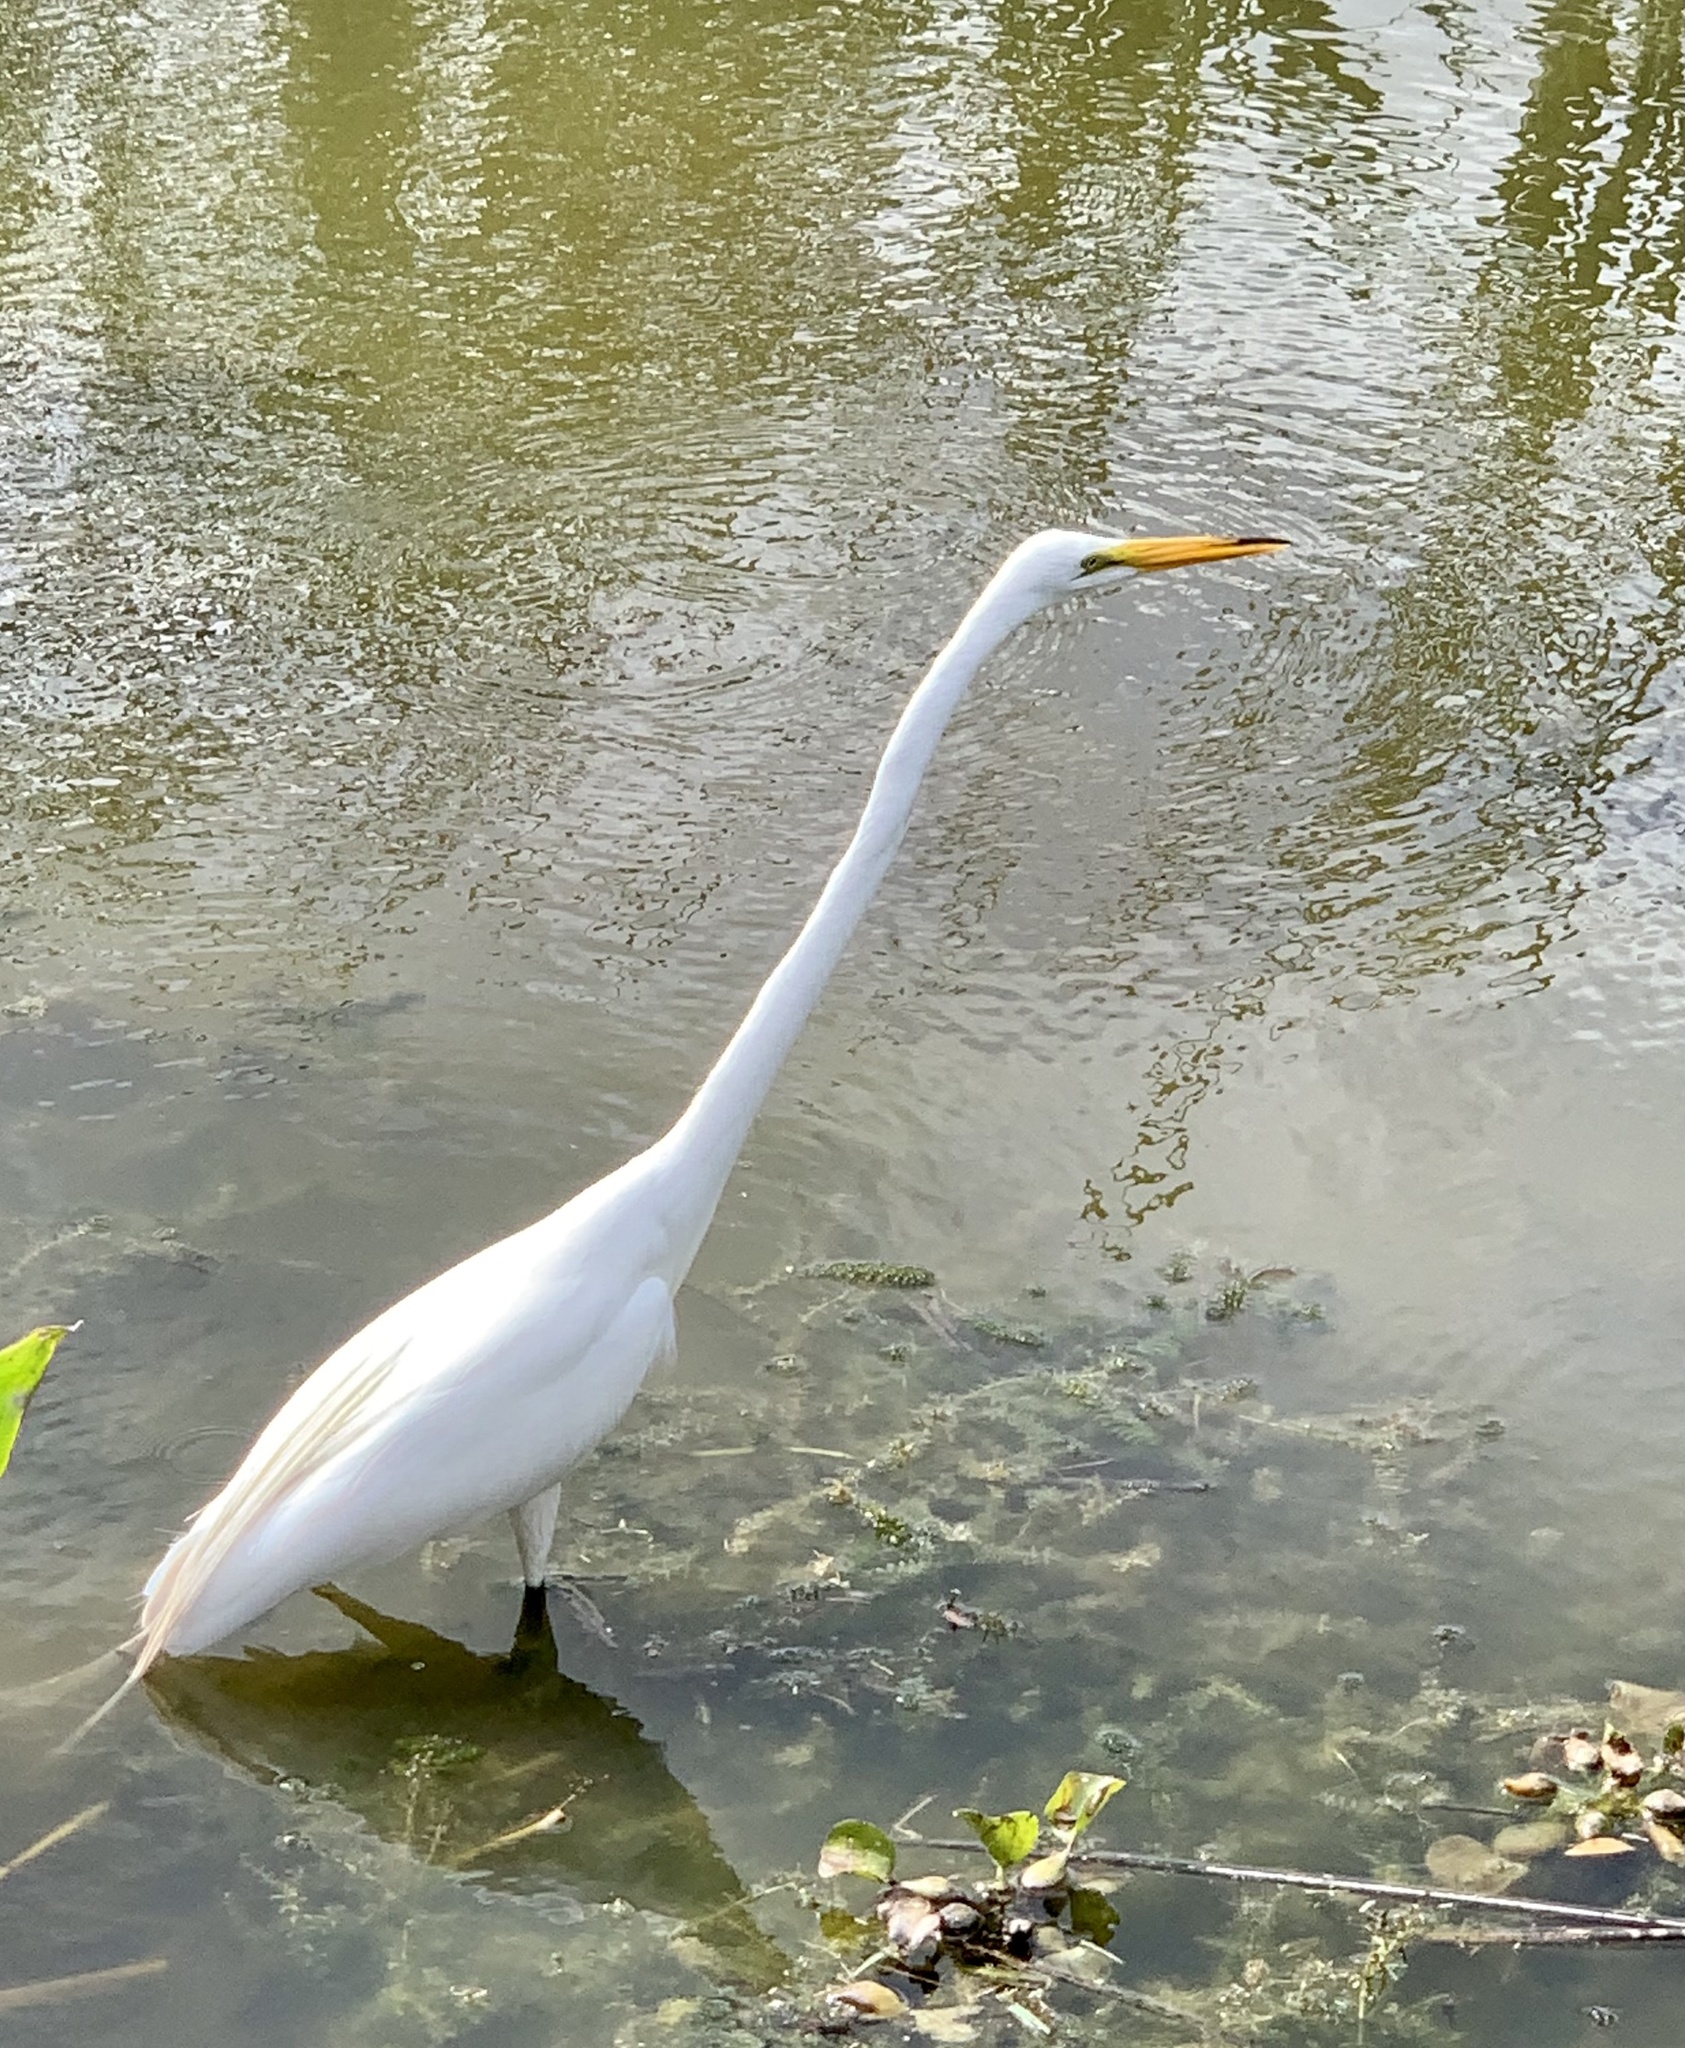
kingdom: Animalia
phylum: Chordata
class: Aves
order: Pelecaniformes
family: Ardeidae
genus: Ardea
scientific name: Ardea alba
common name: Great egret
